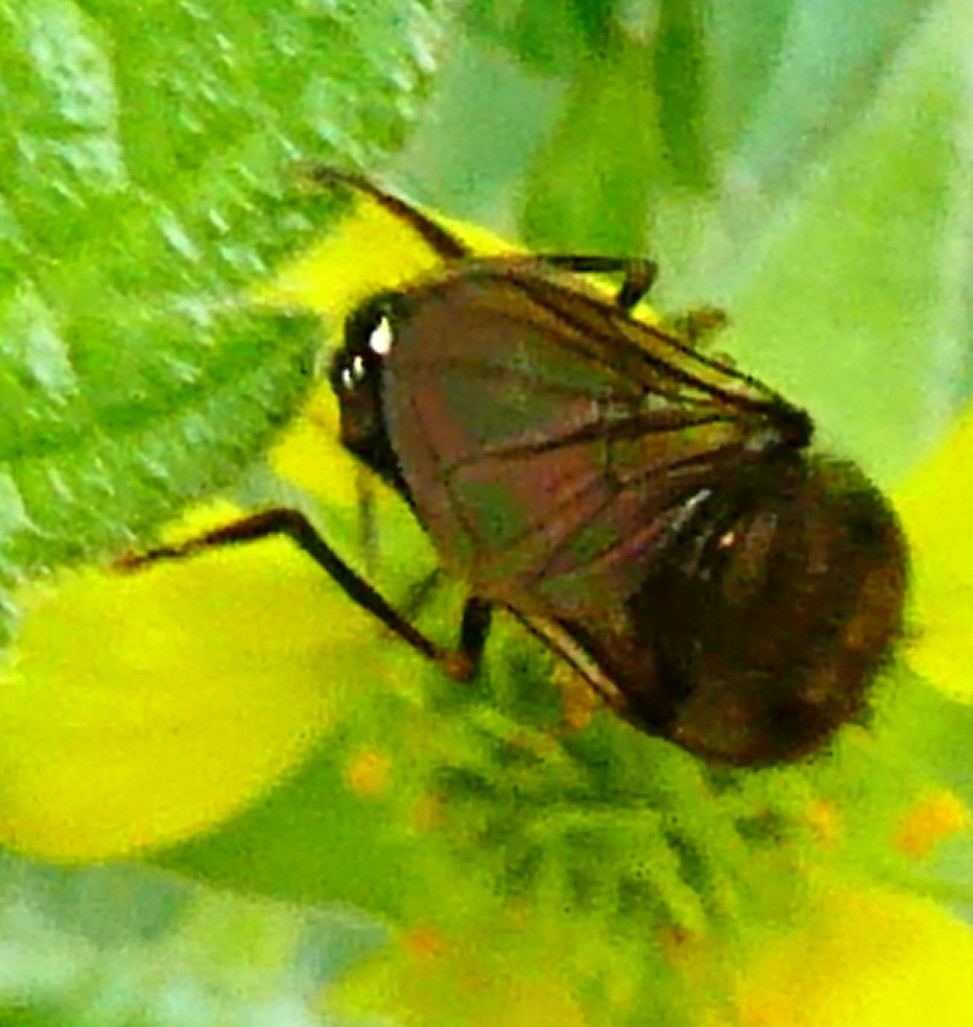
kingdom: Animalia
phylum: Arthropoda
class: Insecta
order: Diptera
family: Syrphidae
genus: Platycheirus
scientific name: Platycheirus
